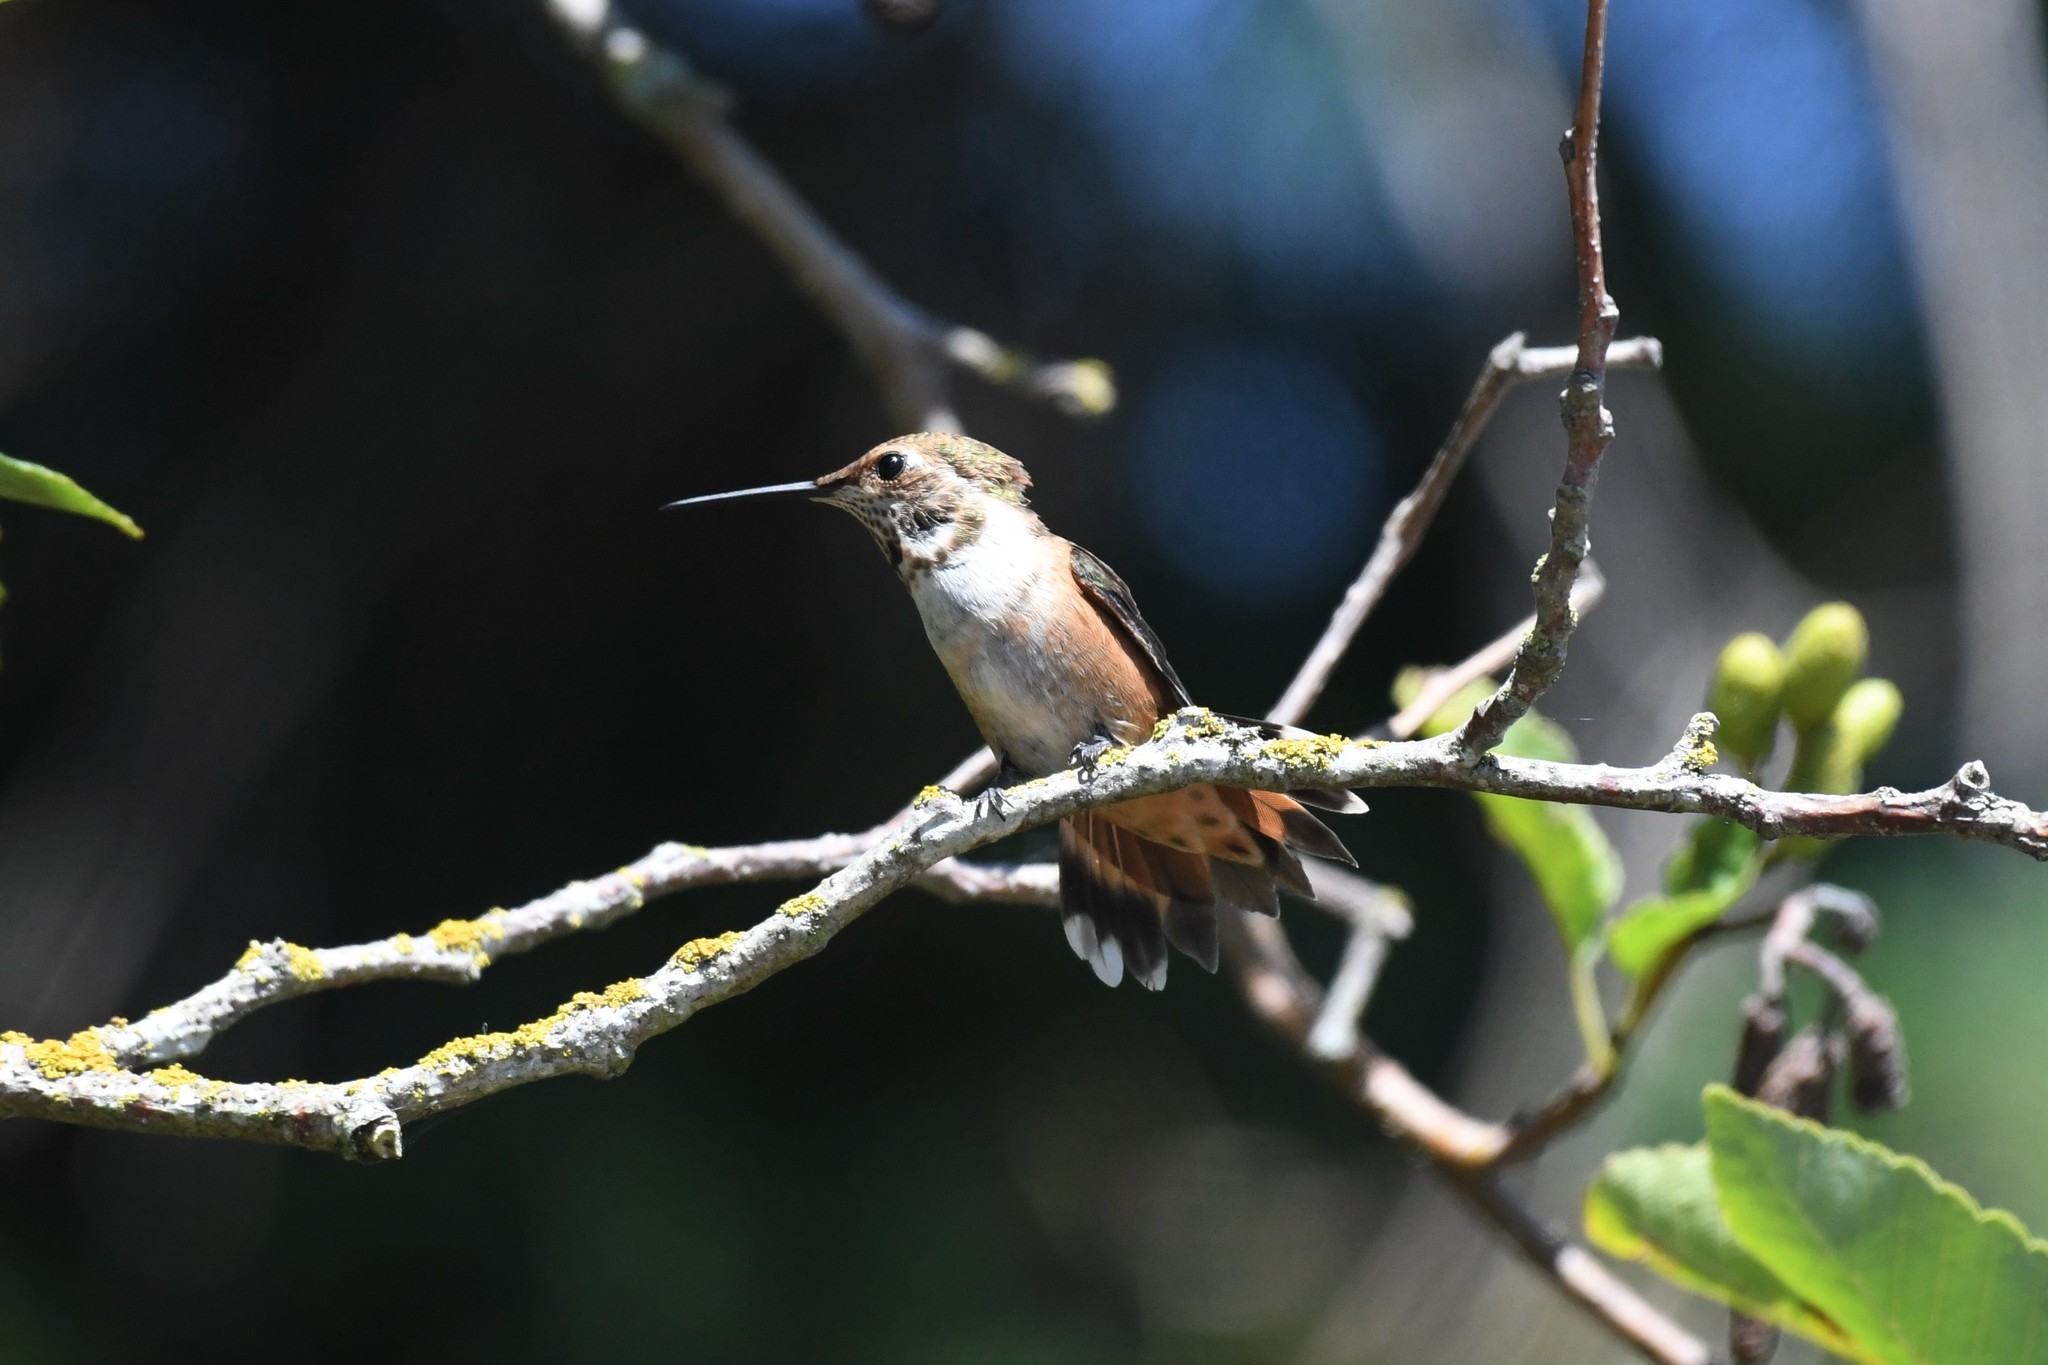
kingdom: Animalia
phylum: Chordata
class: Aves
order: Apodiformes
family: Trochilidae
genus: Selasphorus
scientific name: Selasphorus rufus
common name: Rufous hummingbird
